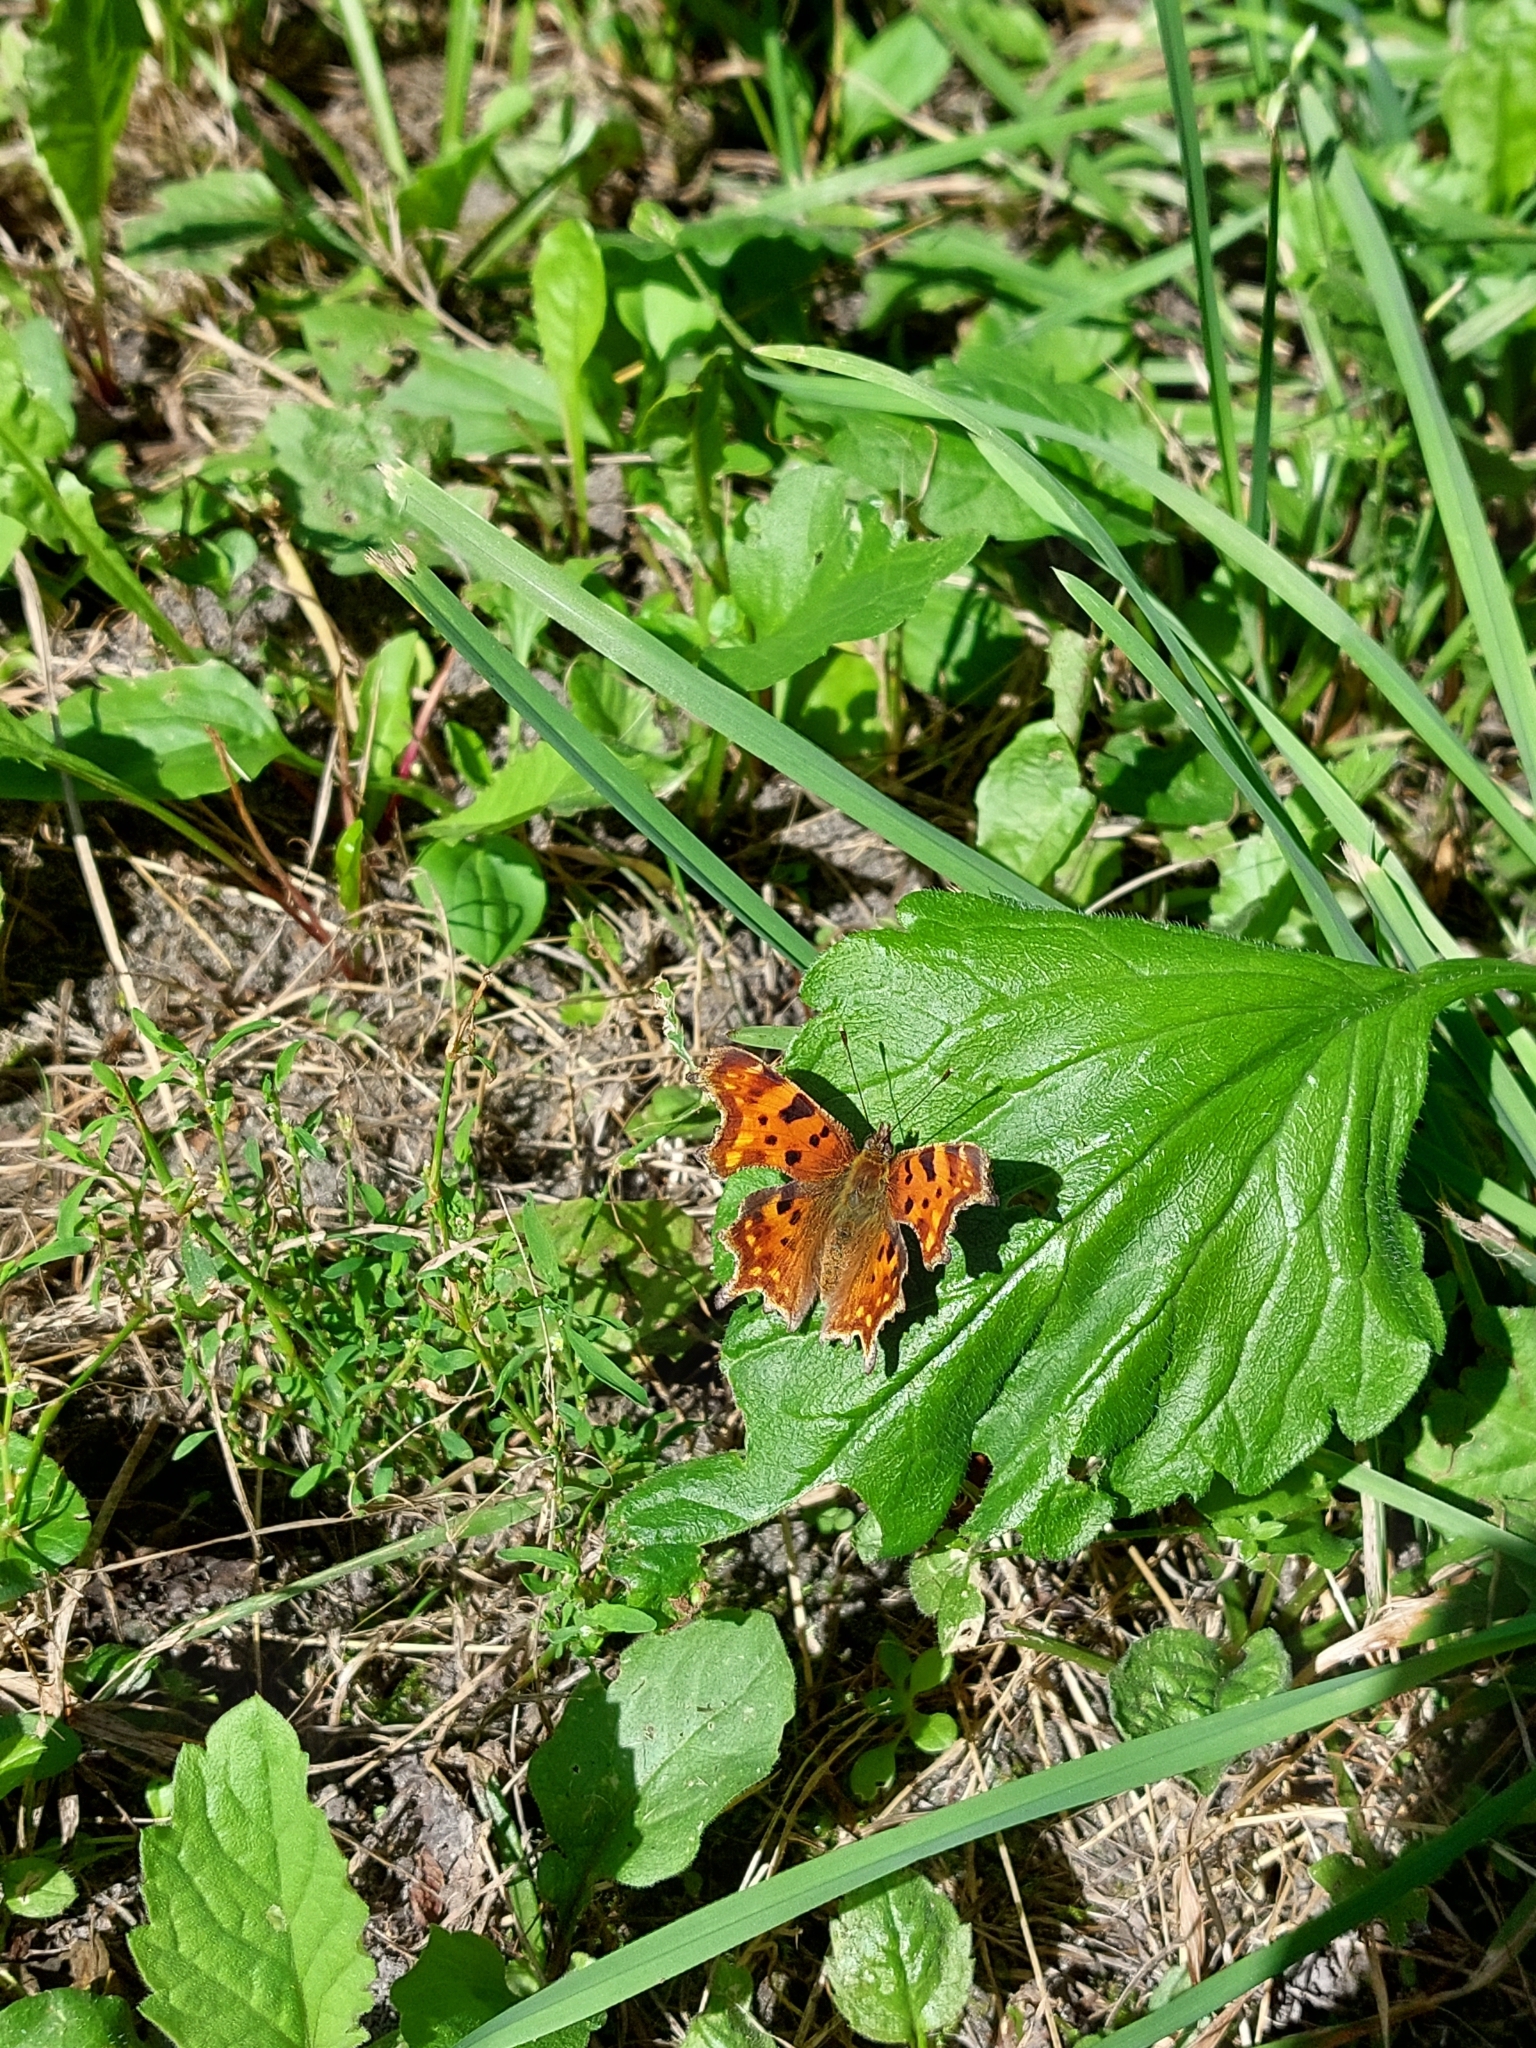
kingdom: Animalia
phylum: Arthropoda
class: Insecta
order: Lepidoptera
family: Nymphalidae
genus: Polygonia
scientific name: Polygonia c-album
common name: Comma
